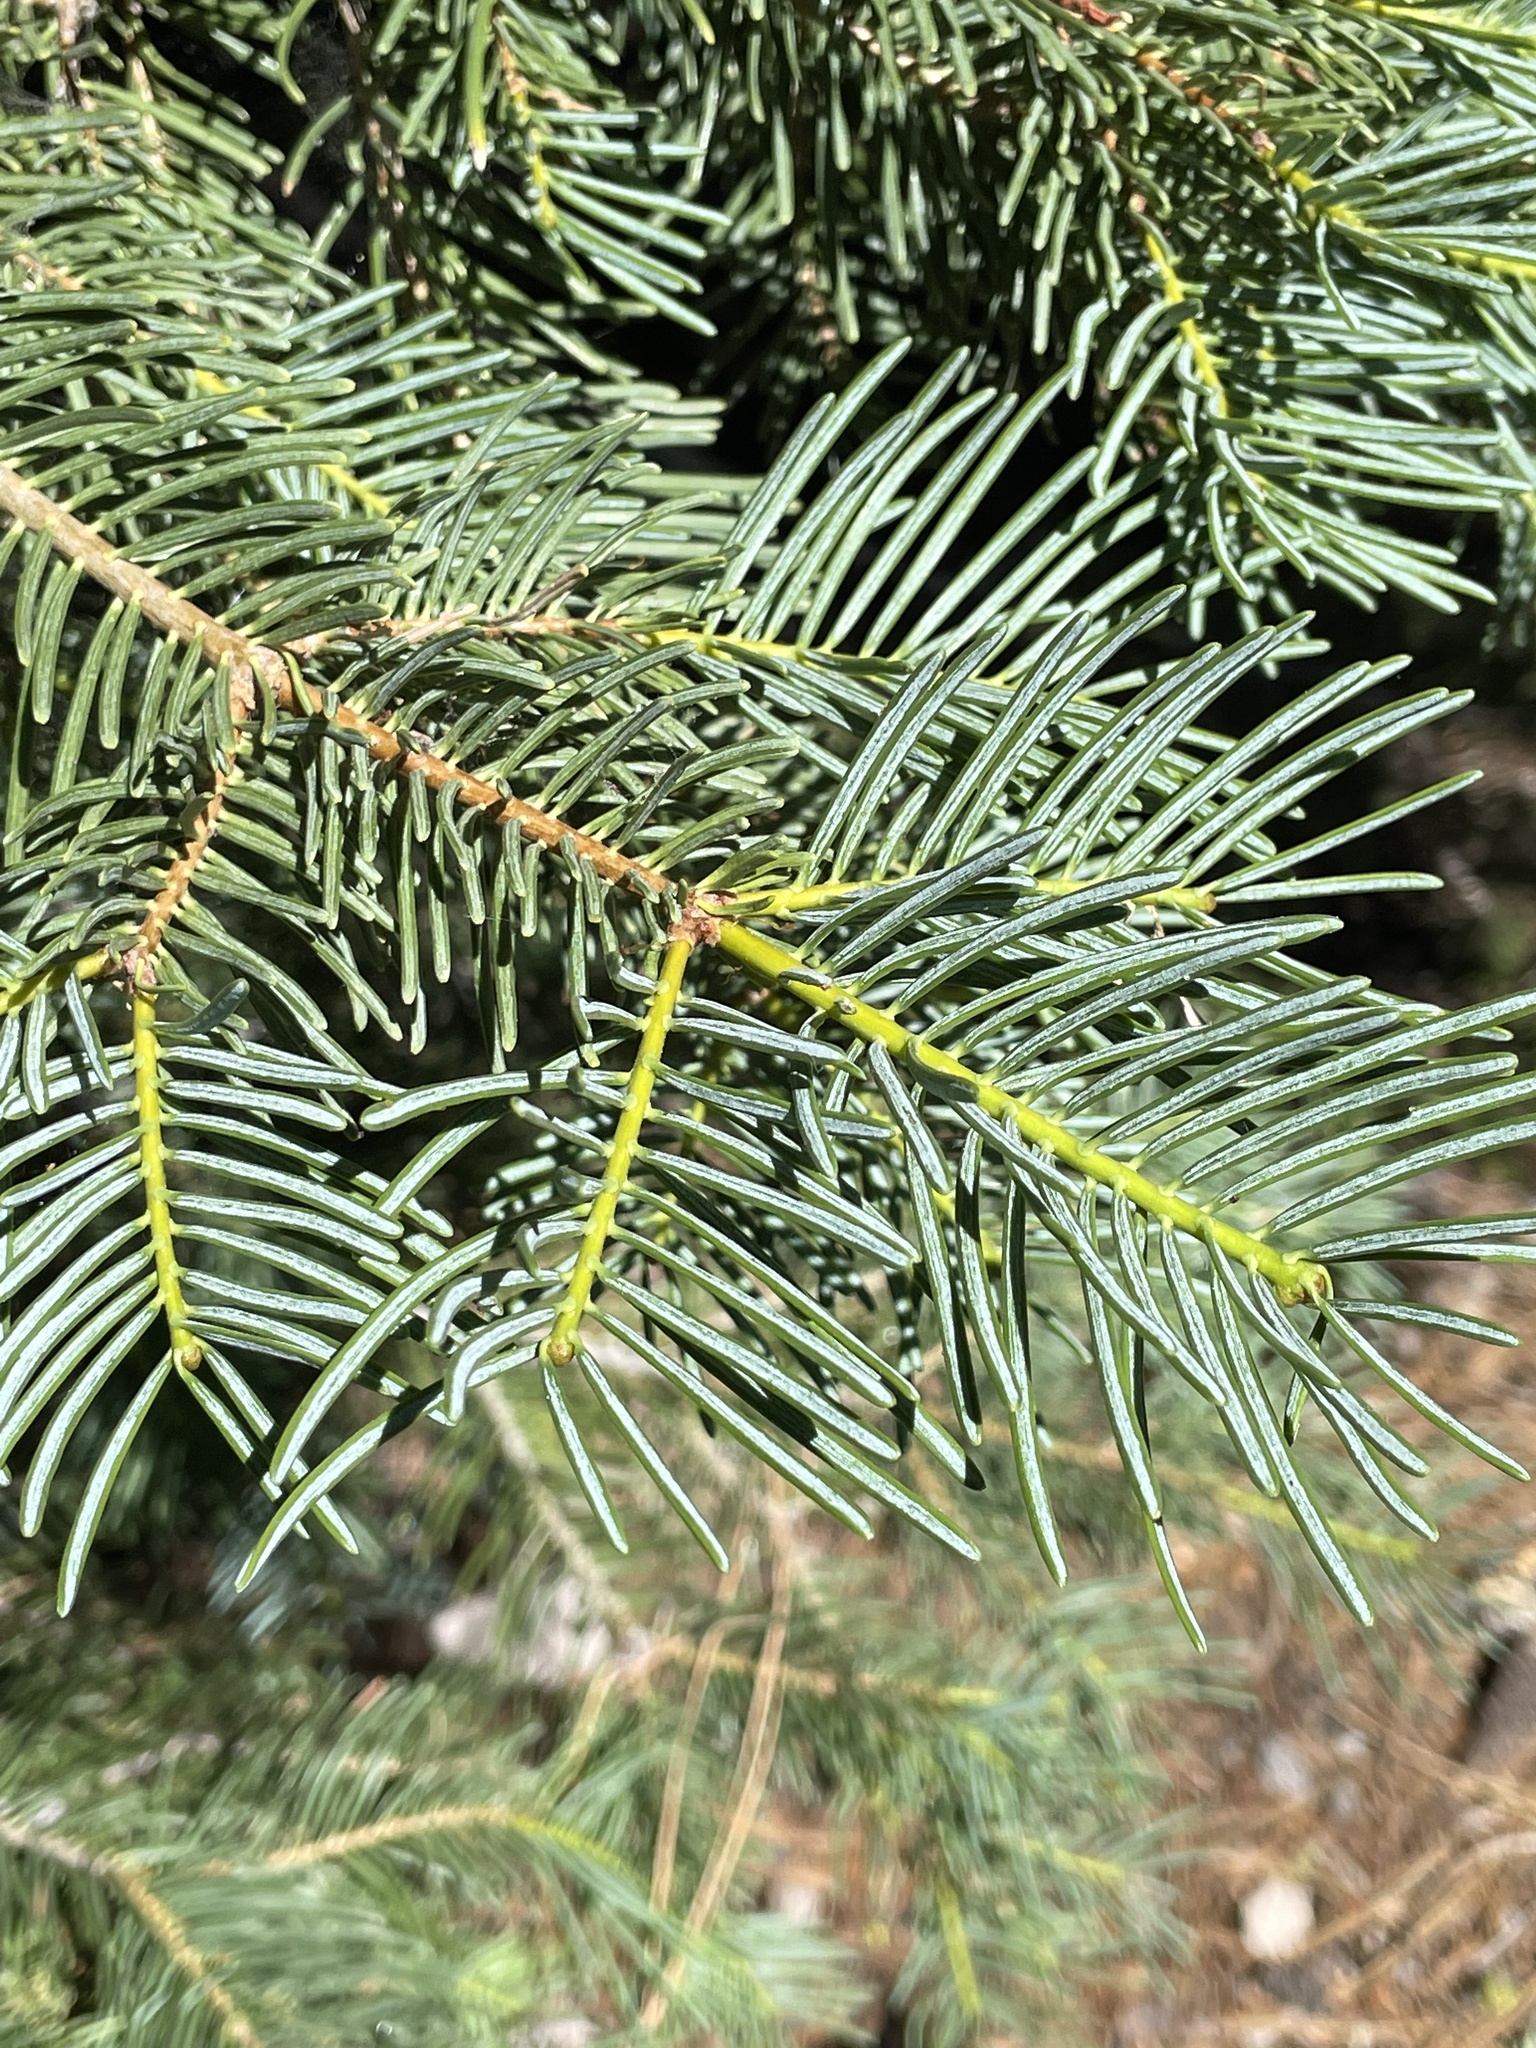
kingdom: Plantae
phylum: Tracheophyta
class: Pinopsida
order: Pinales
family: Pinaceae
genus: Abies
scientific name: Abies concolor
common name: Colorado fir
